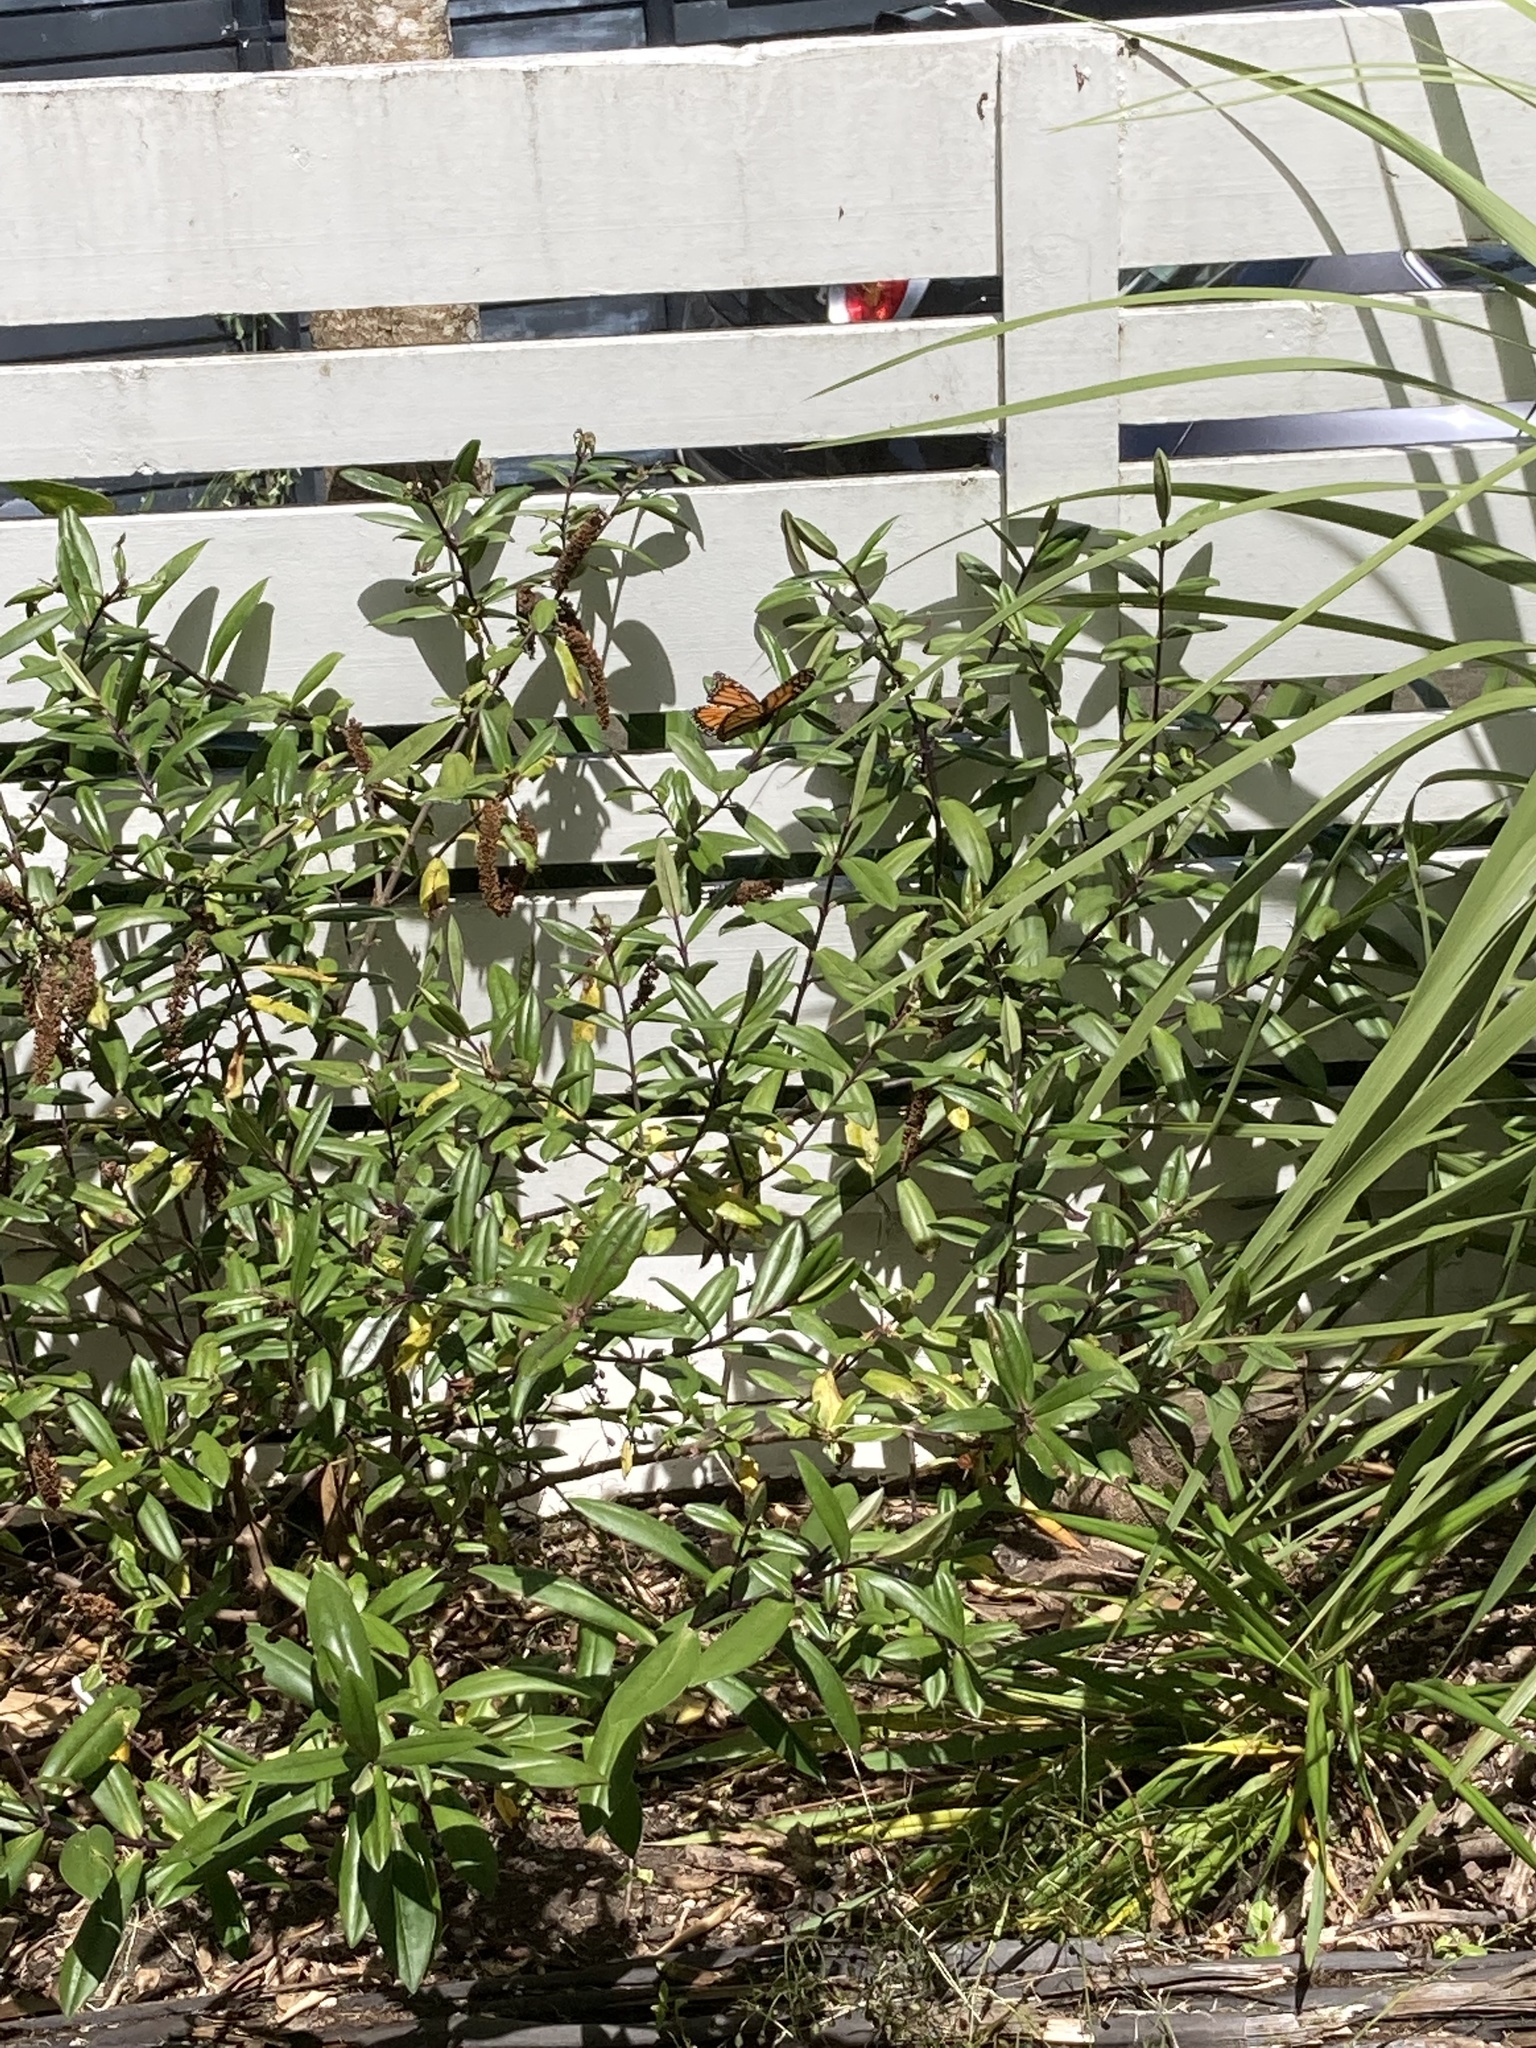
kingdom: Animalia
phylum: Arthropoda
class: Insecta
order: Lepidoptera
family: Nymphalidae
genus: Danaus
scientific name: Danaus plexippus
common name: Monarch
